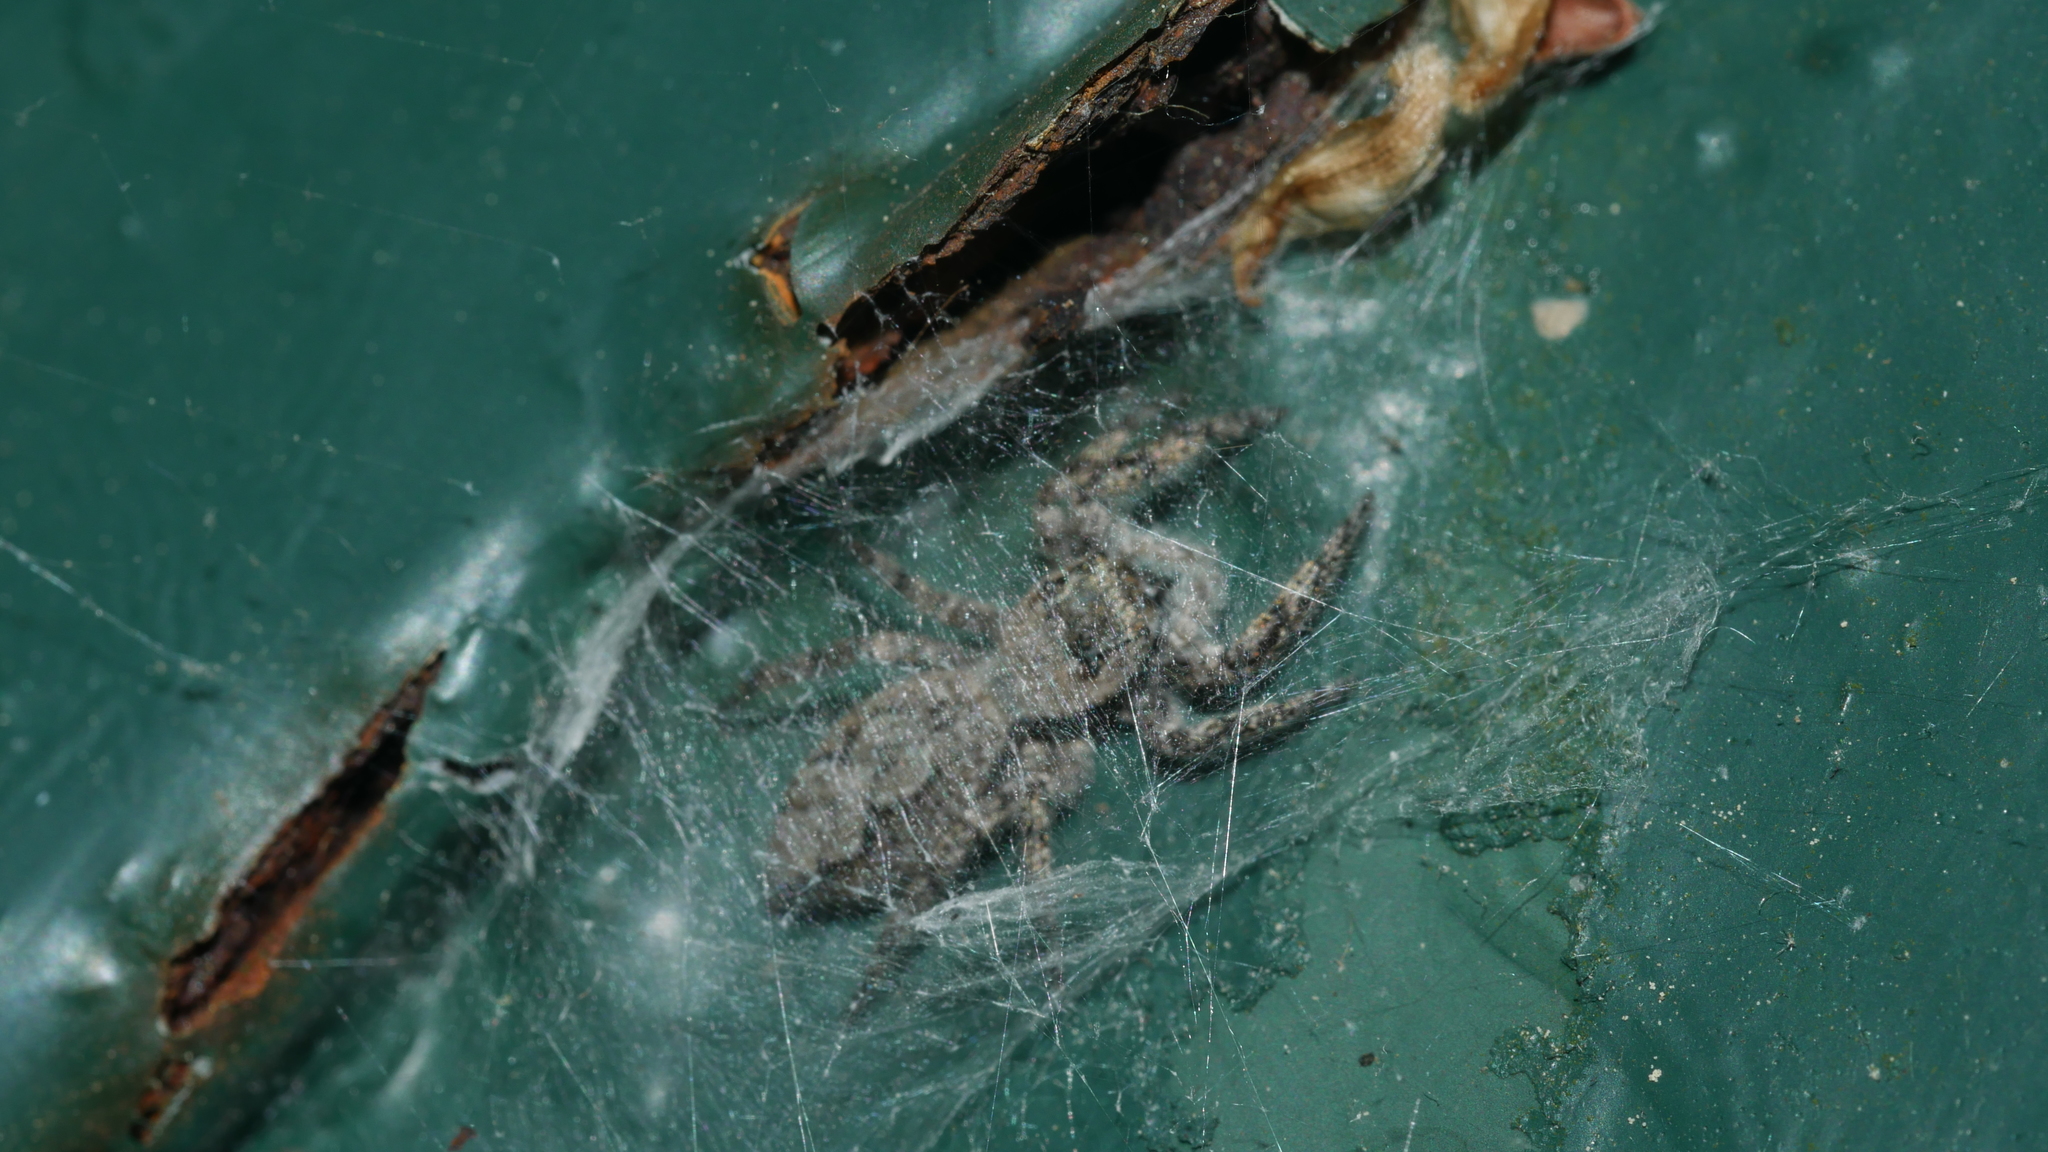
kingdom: Animalia
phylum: Arthropoda
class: Arachnida
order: Araneae
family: Salticidae
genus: Platycryptus
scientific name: Platycryptus undatus
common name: Tan jumping spider
